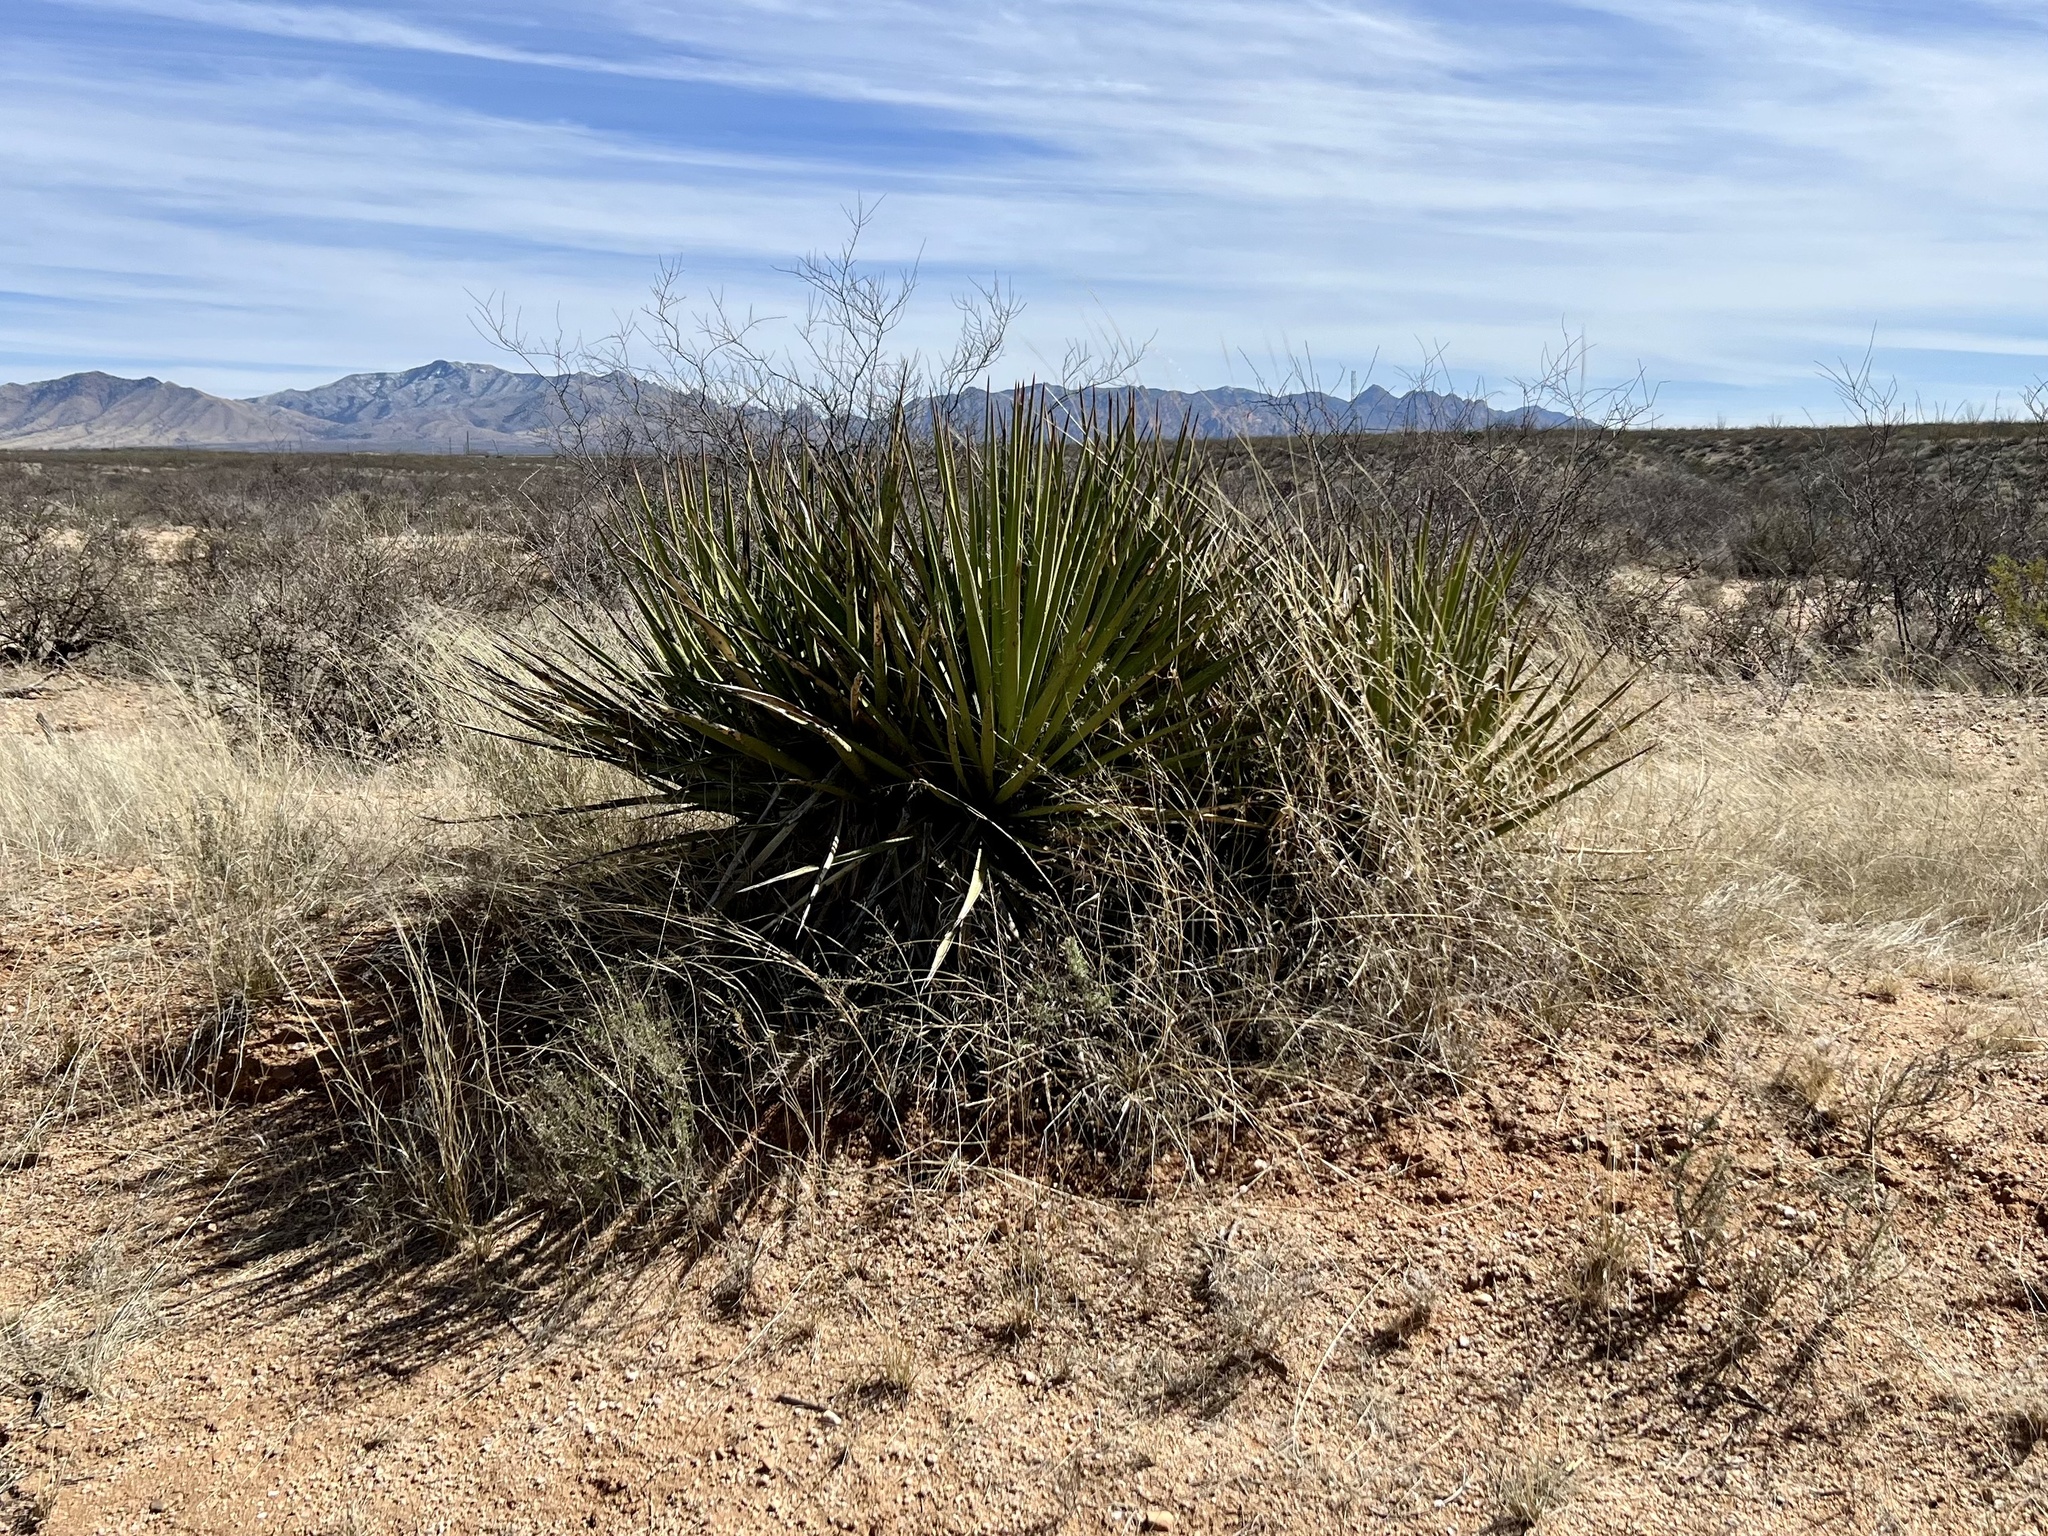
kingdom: Plantae
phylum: Tracheophyta
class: Liliopsida
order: Asparagales
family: Asparagaceae
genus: Yucca
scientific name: Yucca baccata
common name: Banana yucca
